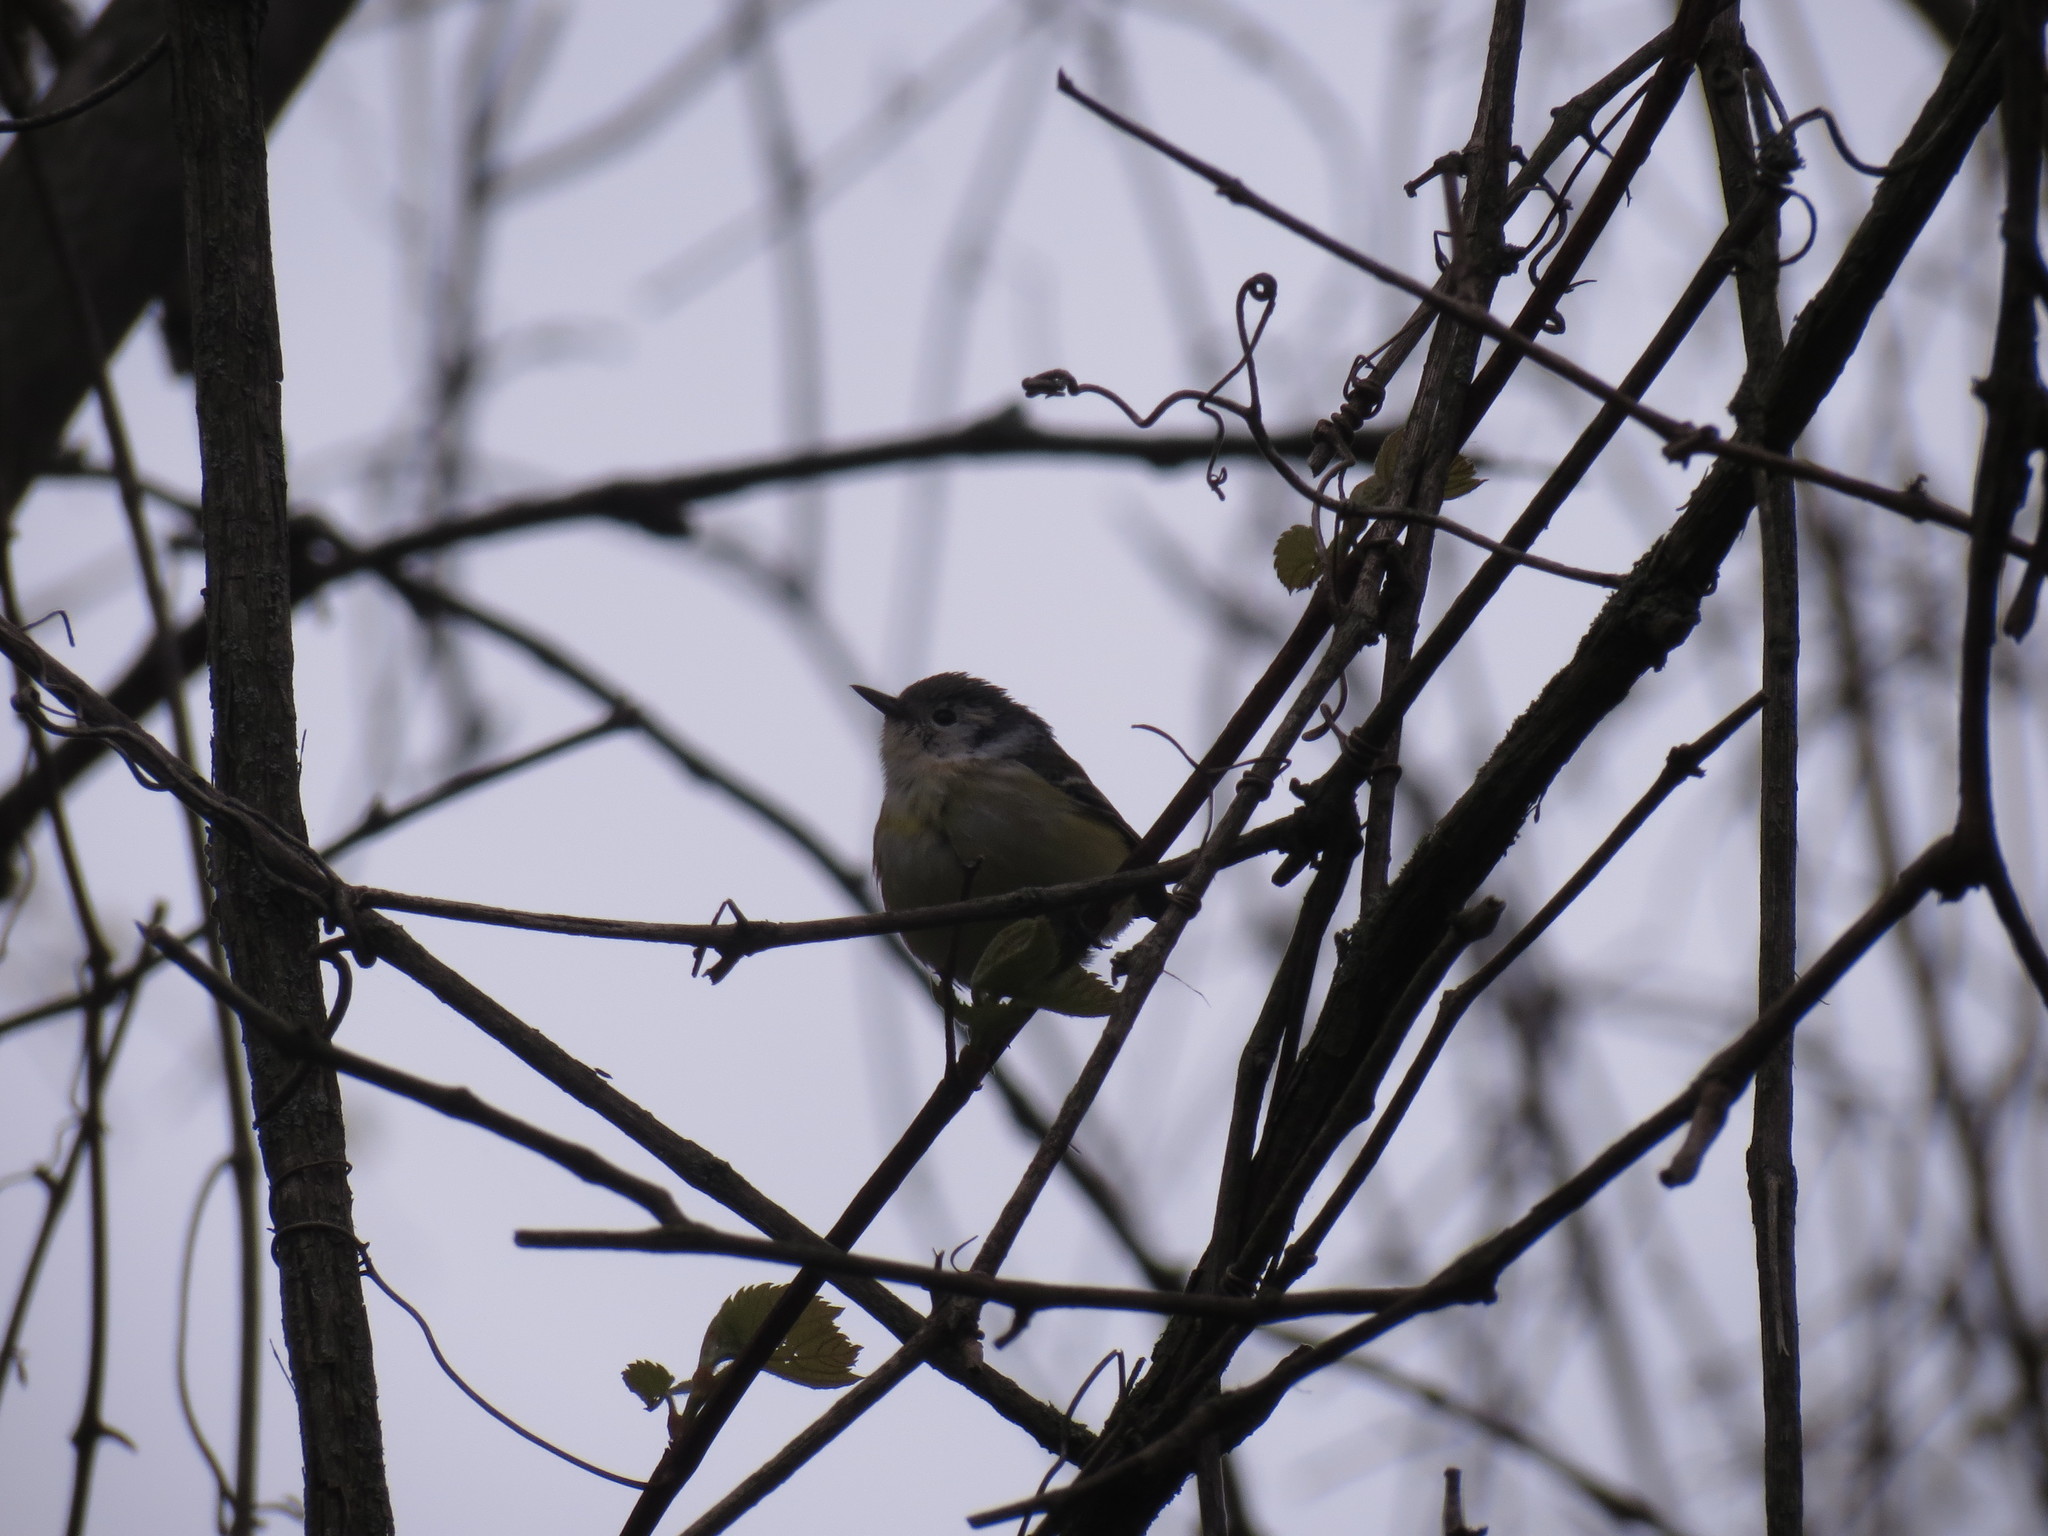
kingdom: Animalia
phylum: Chordata
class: Aves
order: Passeriformes
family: Parulidae
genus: Setophaga
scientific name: Setophaga
